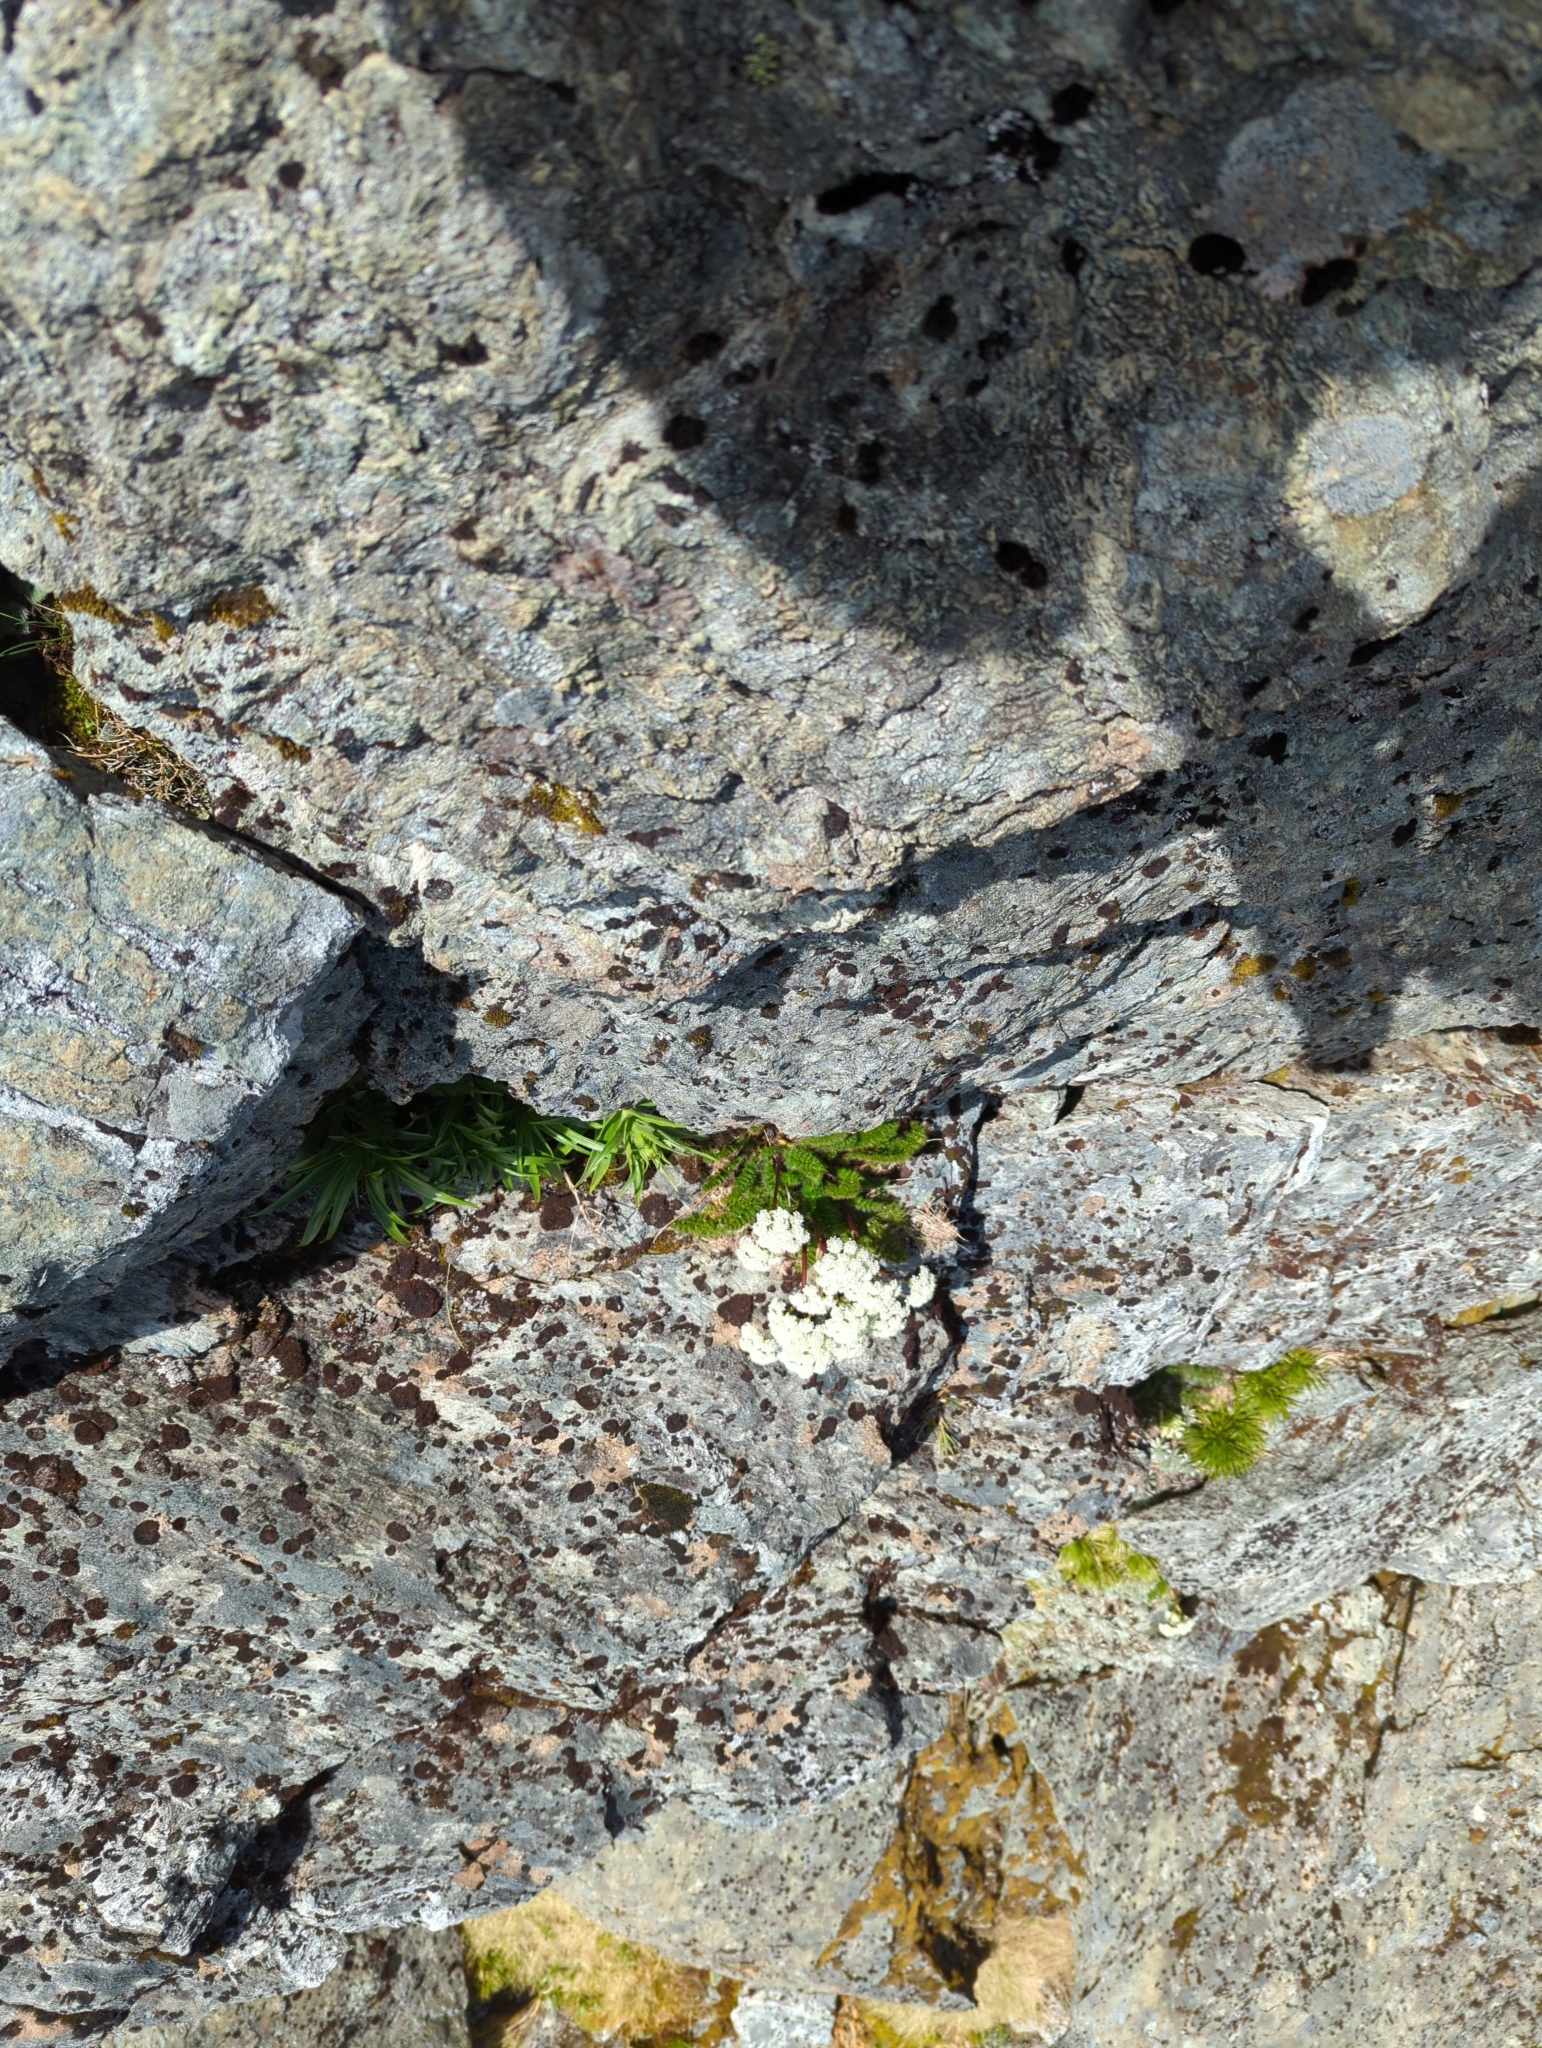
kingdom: Plantae
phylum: Tracheophyta
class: Magnoliopsida
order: Apiales
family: Apiaceae
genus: Anisotome
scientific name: Anisotome capillifolia
